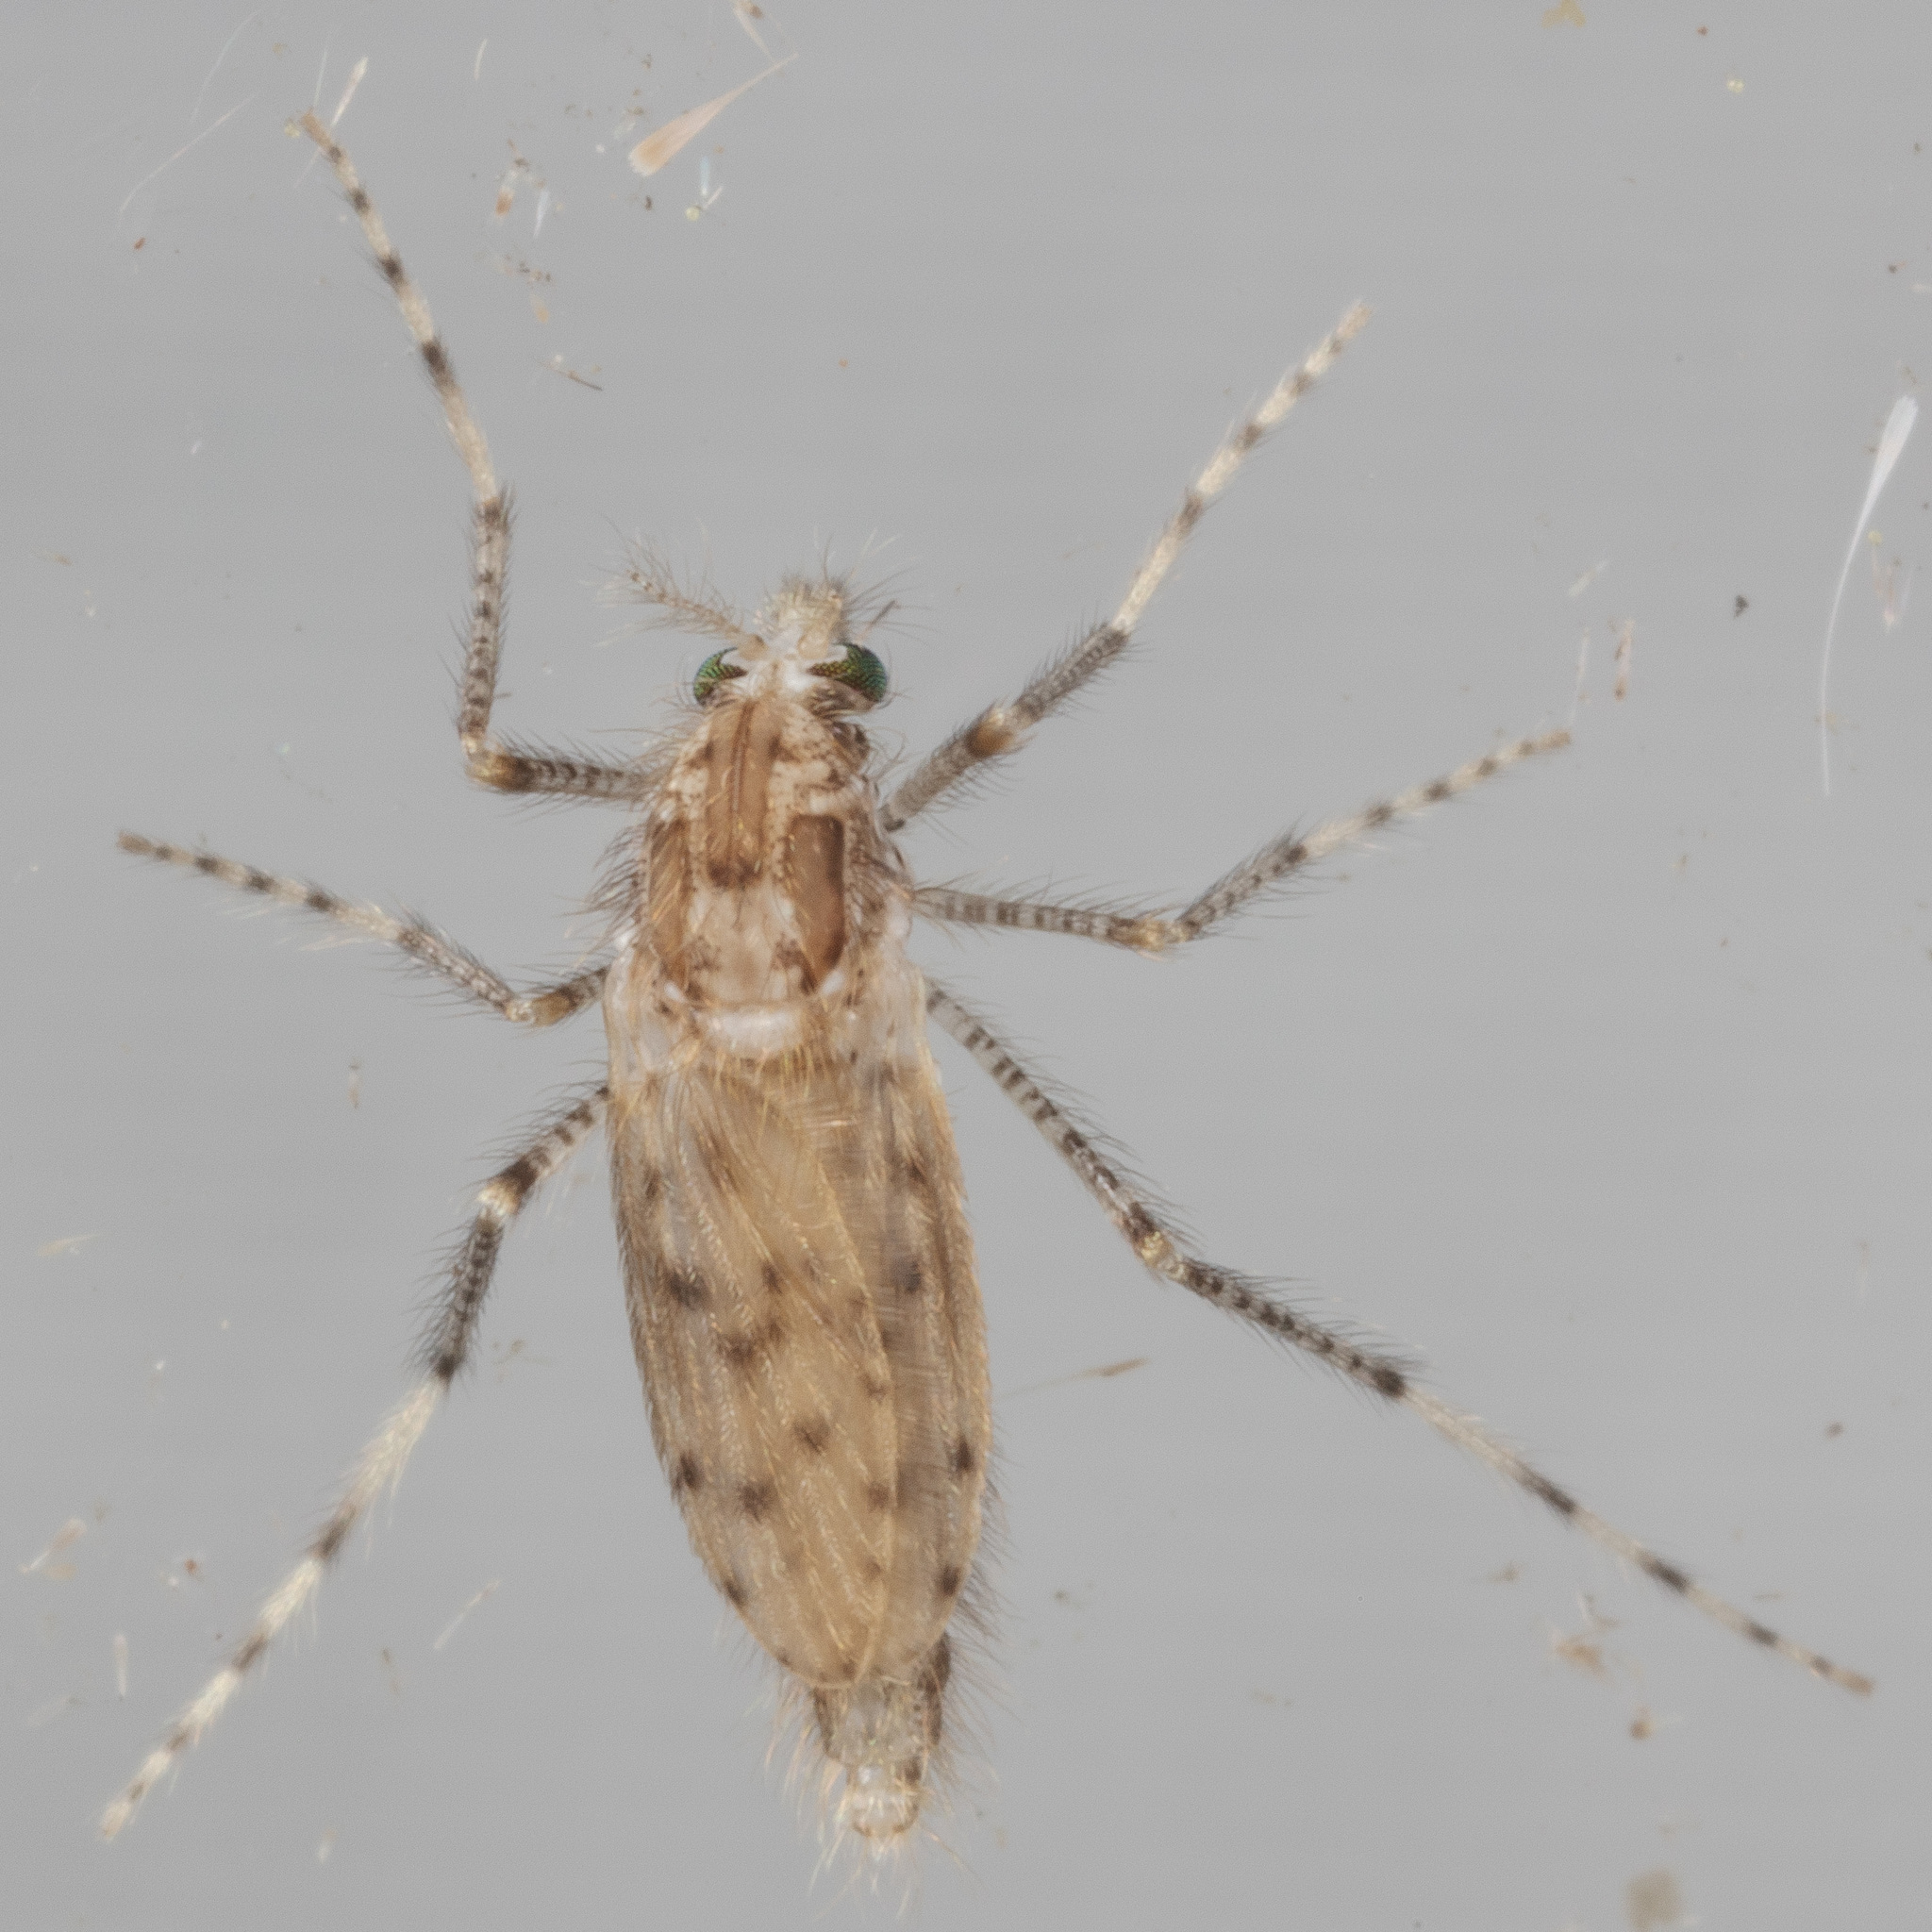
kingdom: Animalia
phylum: Arthropoda
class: Insecta
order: Diptera
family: Chaoboridae
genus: Chaoborus
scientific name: Chaoborus punctipennis
